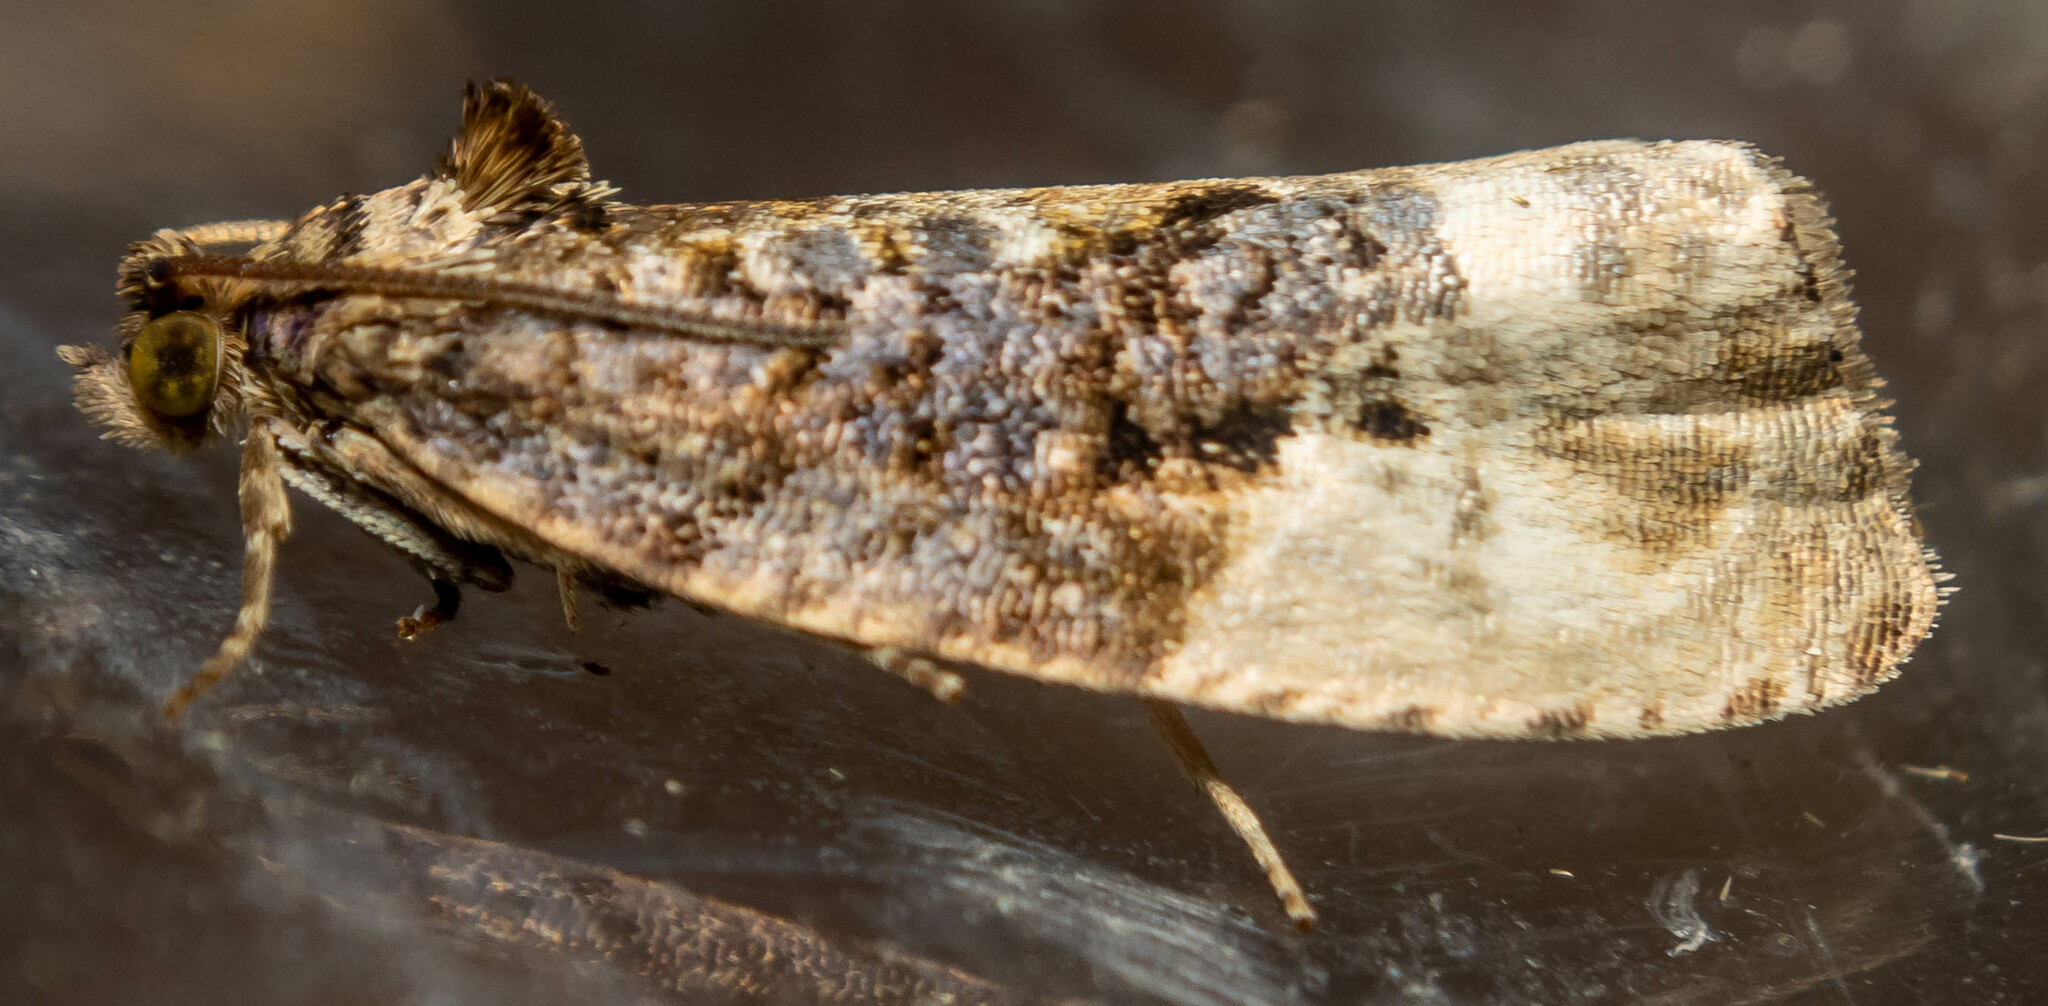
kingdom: Animalia
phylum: Arthropoda
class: Insecta
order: Lepidoptera
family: Tortricidae
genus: Hedya
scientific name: Hedya nubiferana
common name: Marbled orchard tortrix
